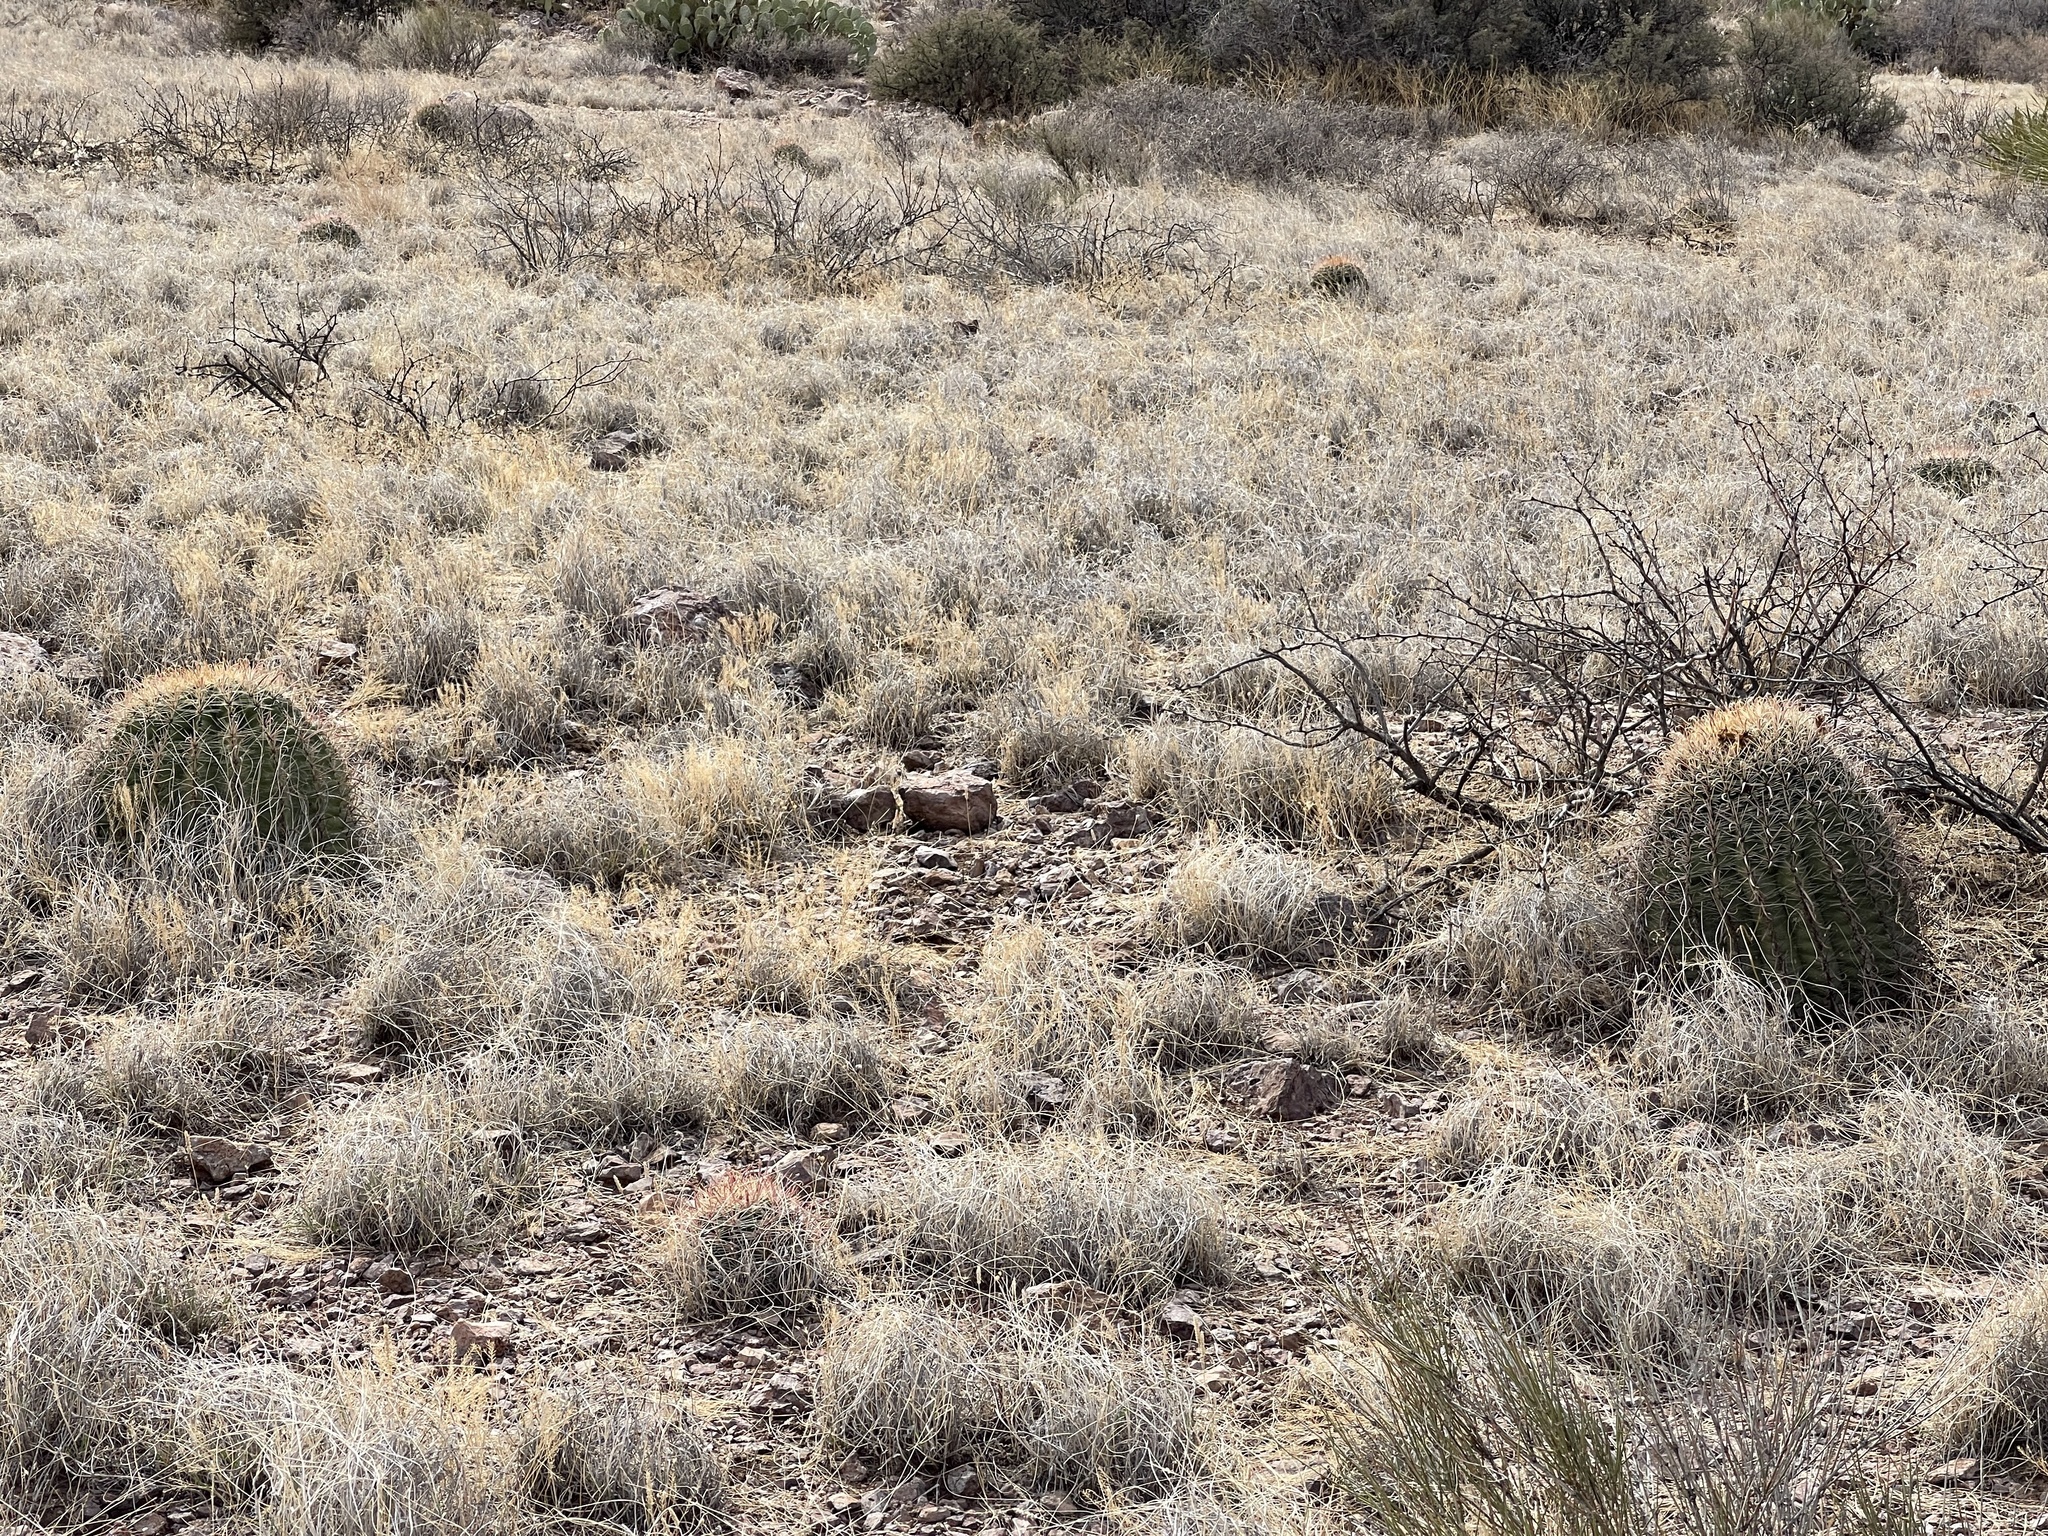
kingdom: Plantae
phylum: Tracheophyta
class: Magnoliopsida
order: Caryophyllales
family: Cactaceae
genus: Ferocactus
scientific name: Ferocactus wislizeni
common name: Candy barrel cactus
